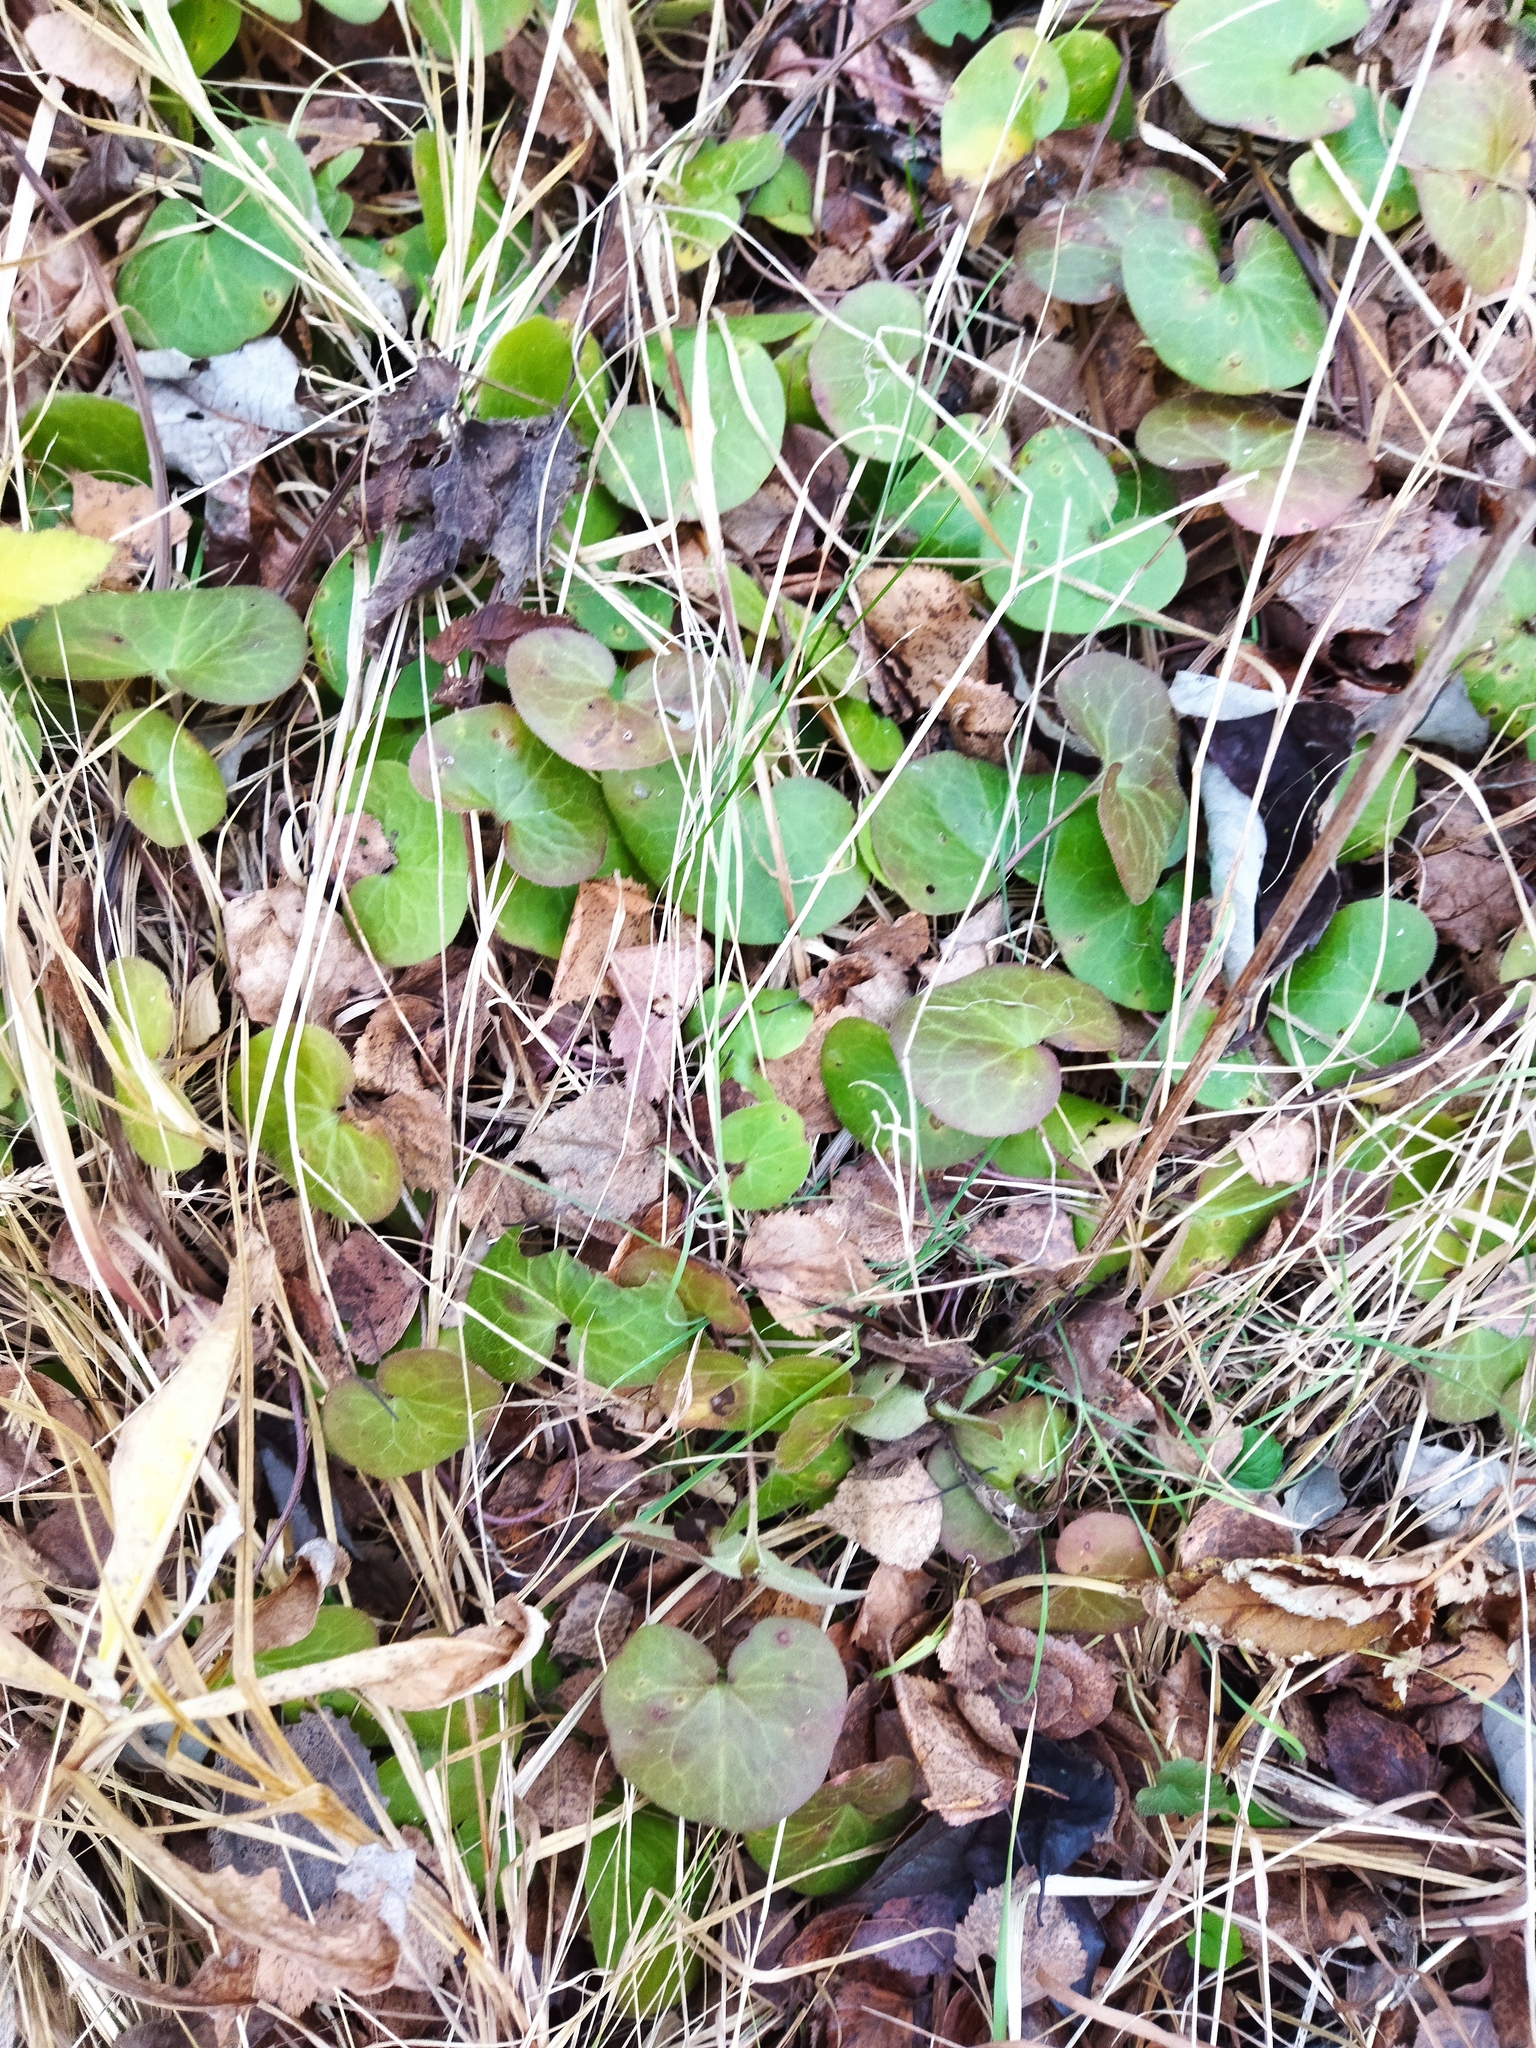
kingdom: Plantae
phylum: Tracheophyta
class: Magnoliopsida
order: Piperales
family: Aristolochiaceae
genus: Asarum
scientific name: Asarum europaeum
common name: Asarabacca
